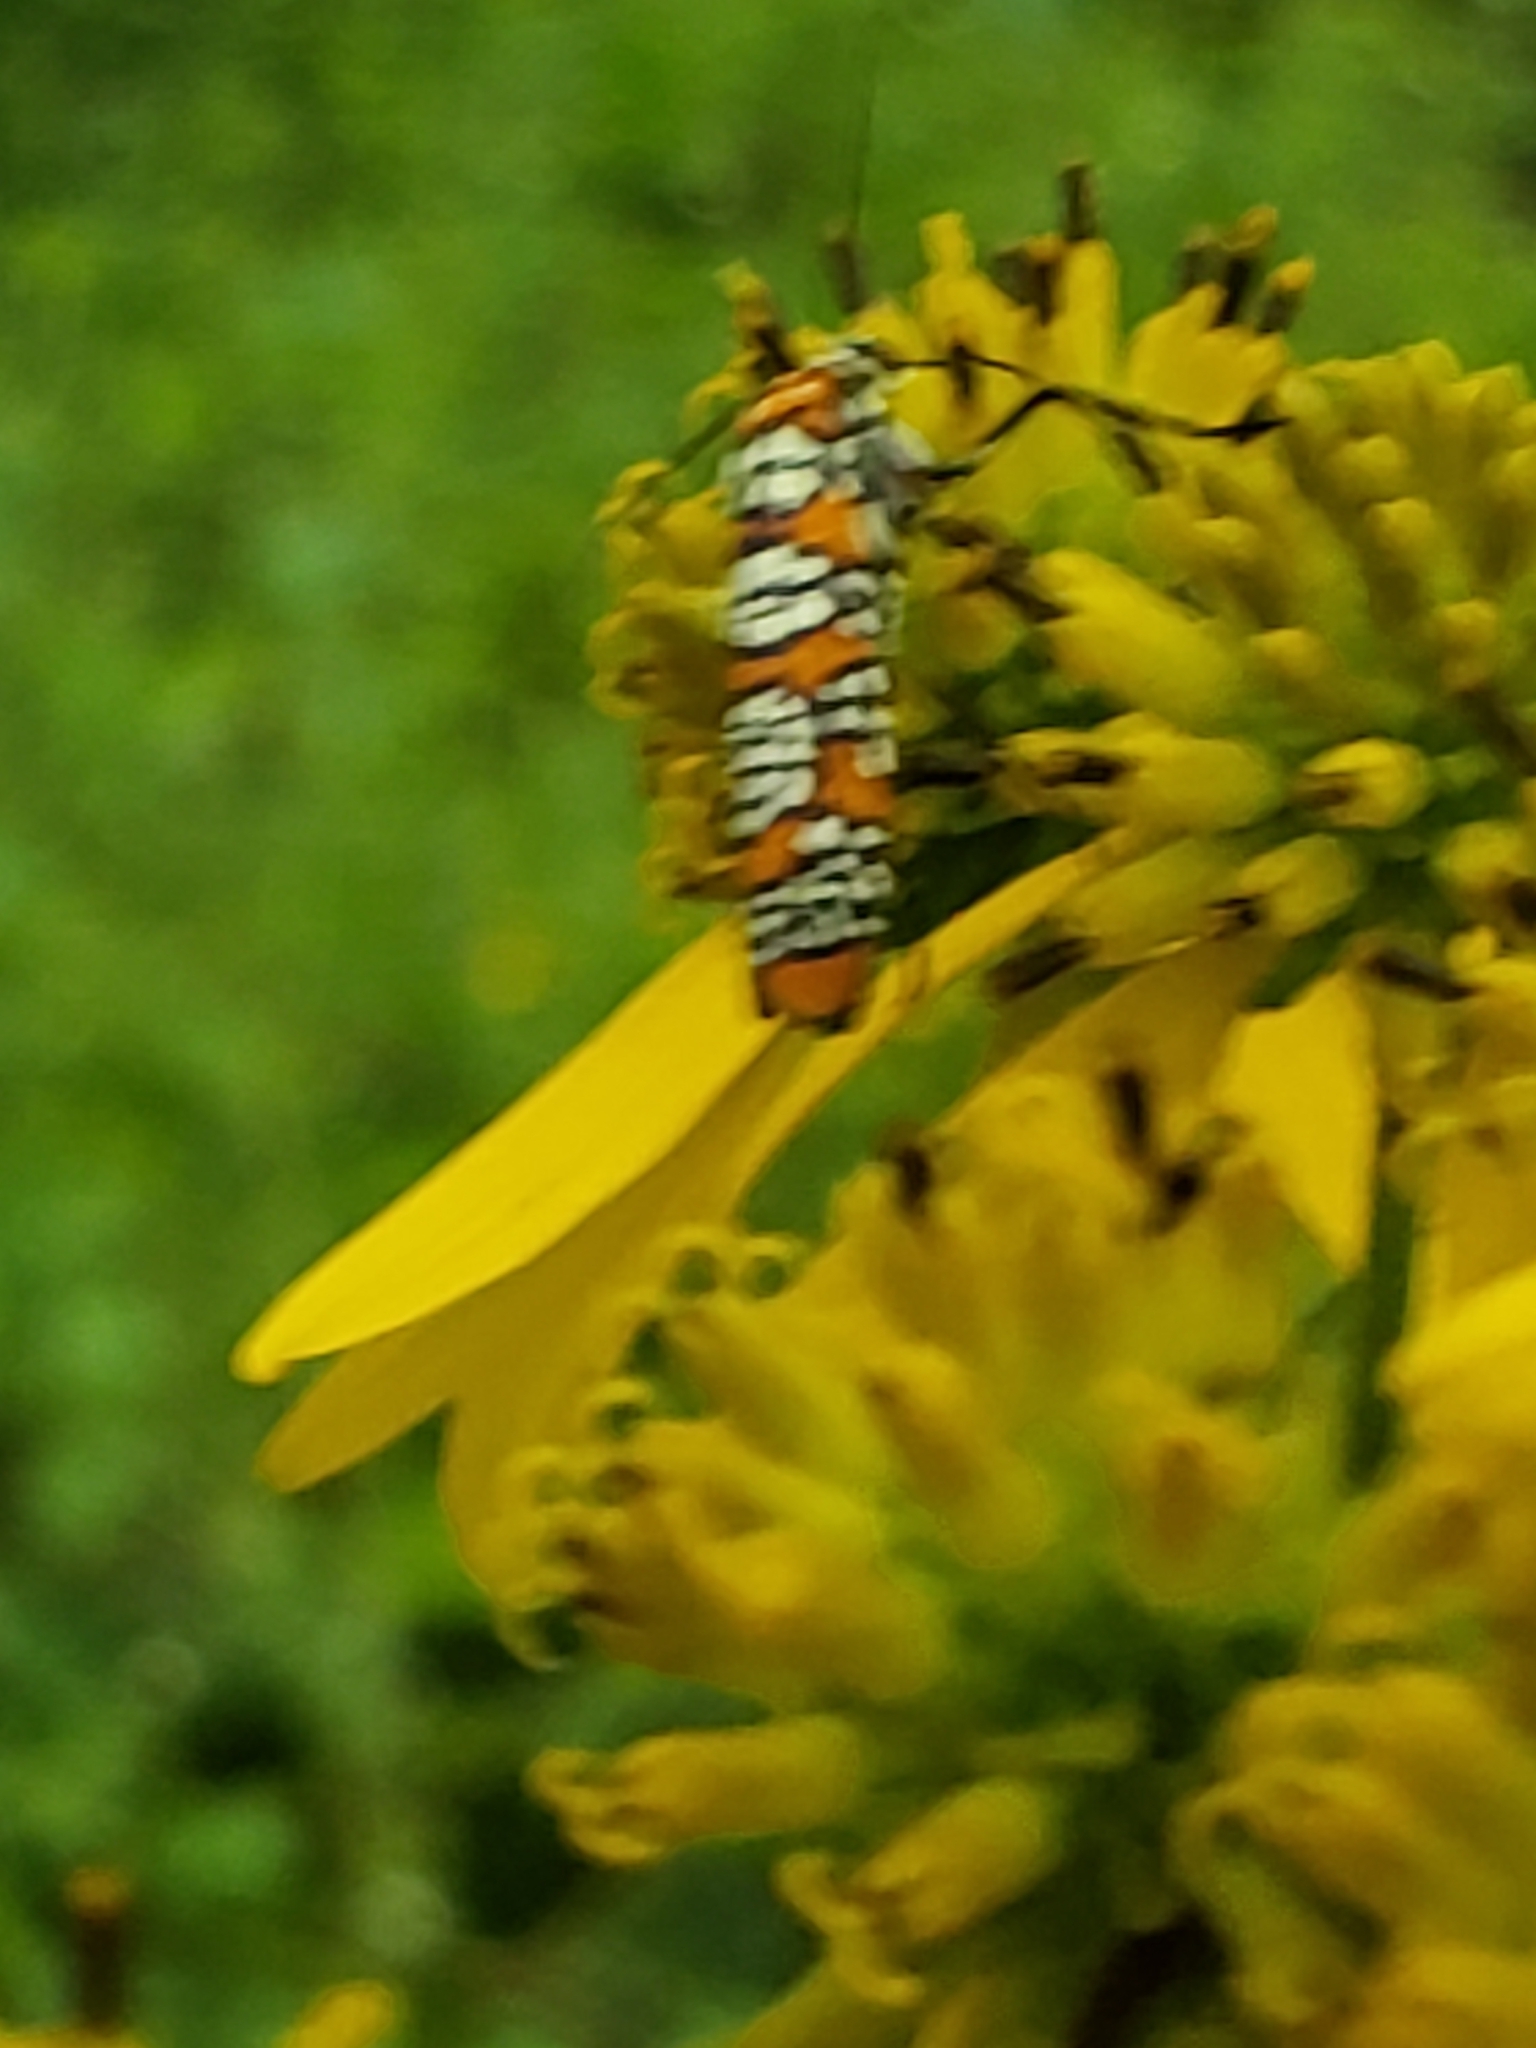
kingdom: Animalia
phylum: Arthropoda
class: Insecta
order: Lepidoptera
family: Attevidae
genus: Atteva
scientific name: Atteva punctella
